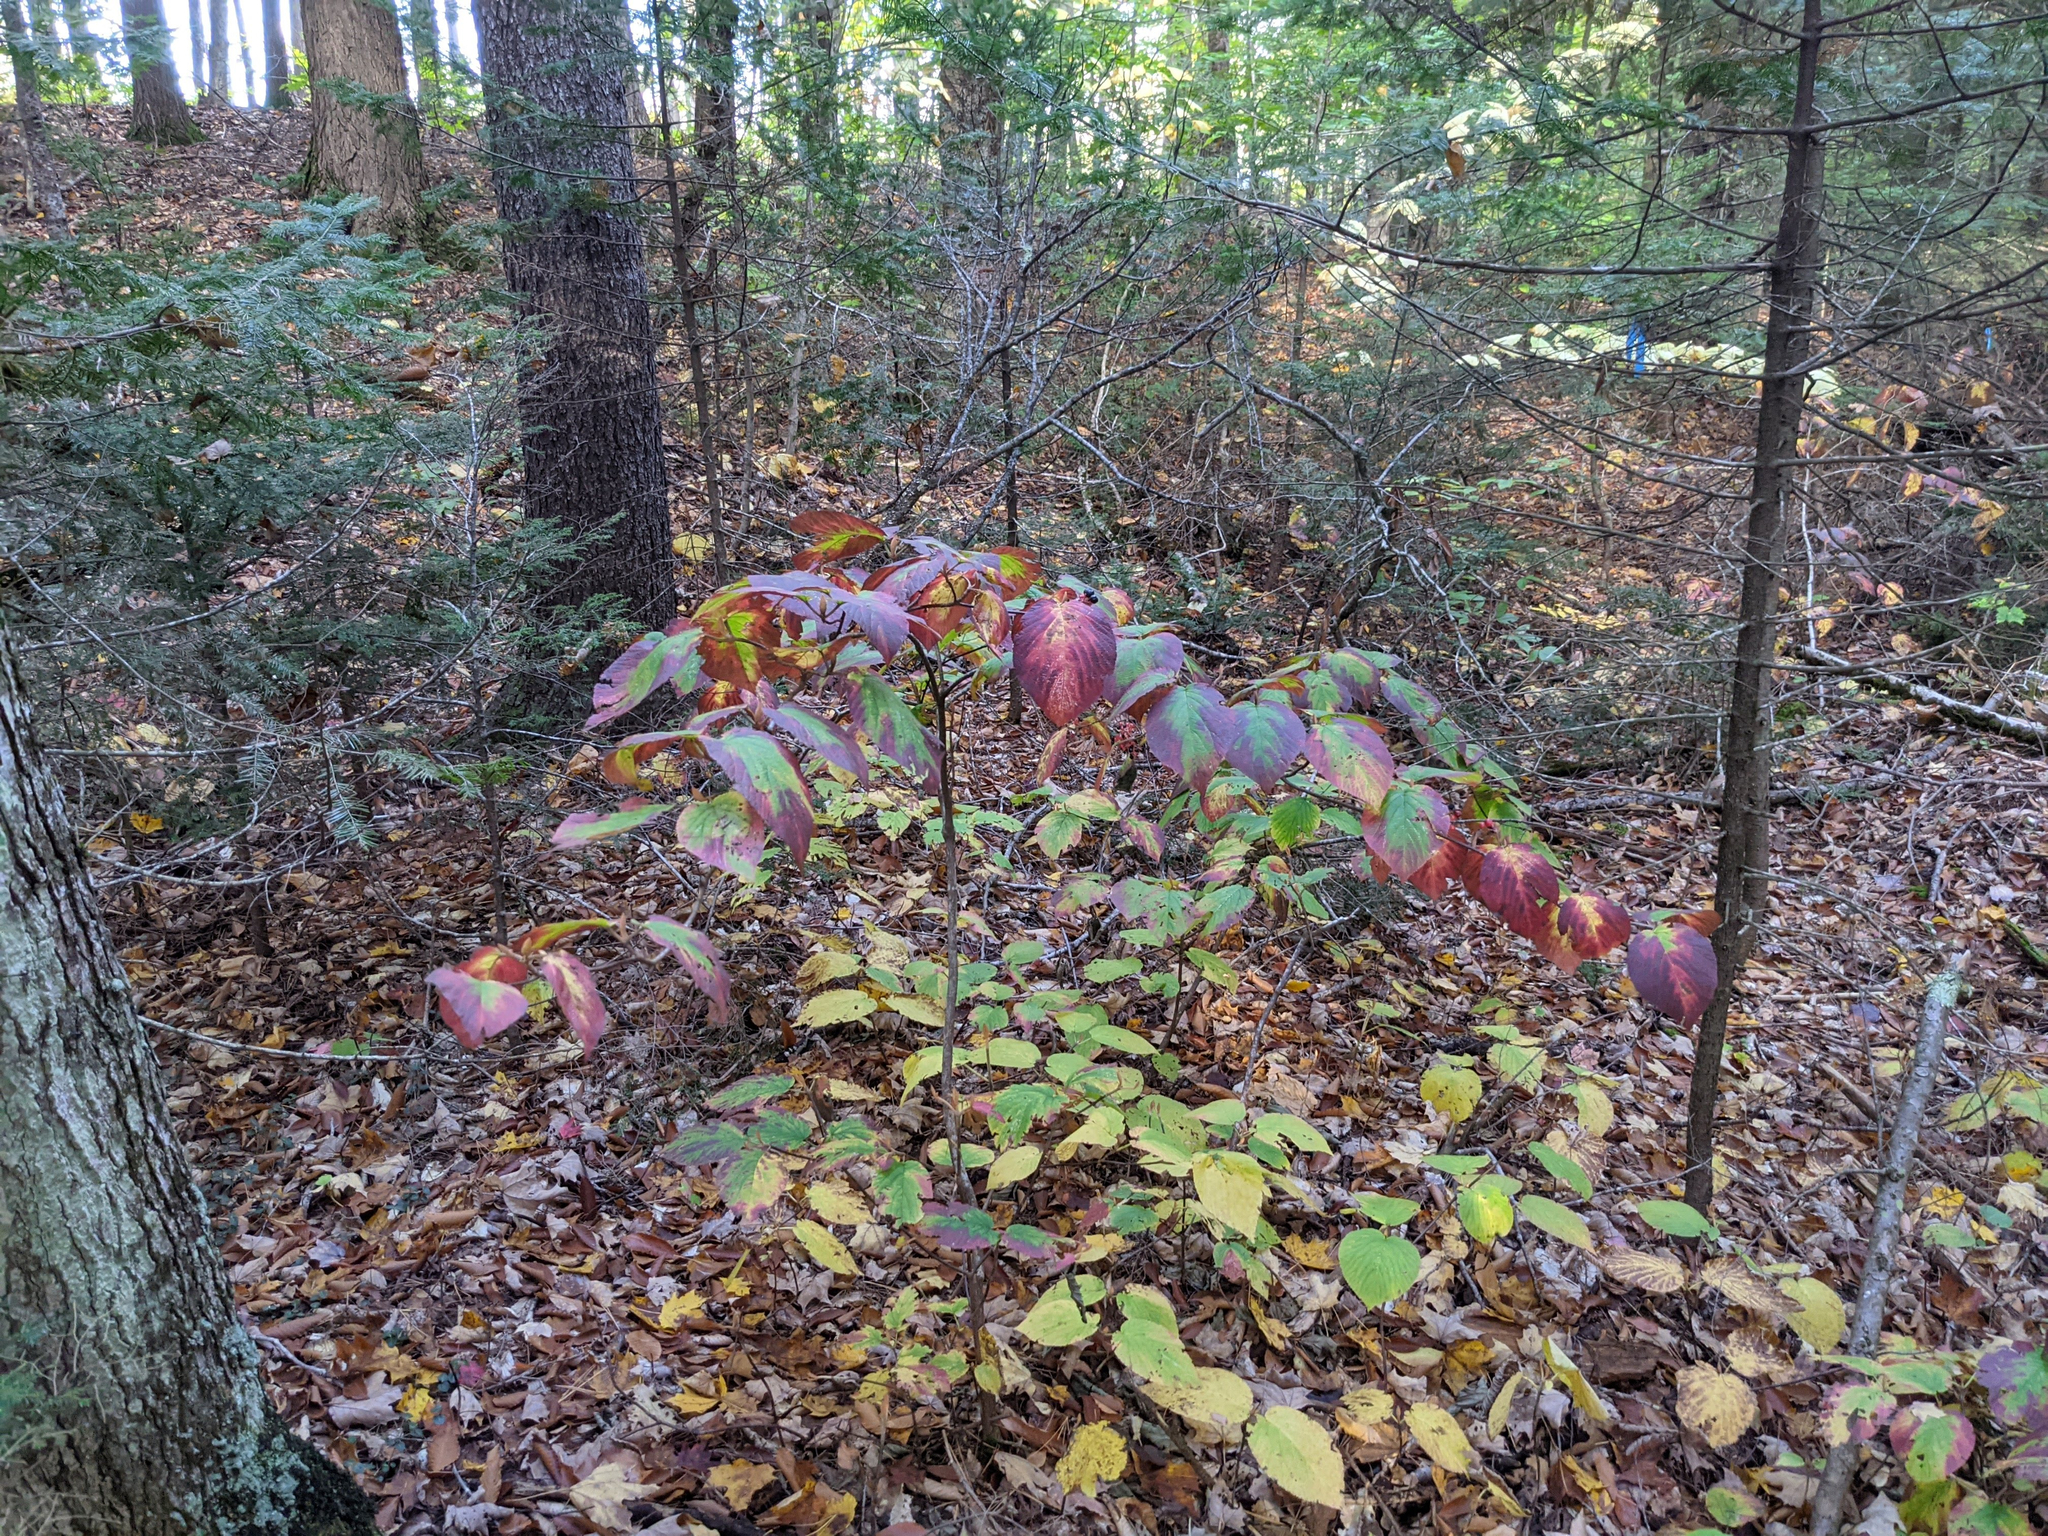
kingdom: Plantae
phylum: Tracheophyta
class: Magnoliopsida
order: Dipsacales
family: Viburnaceae
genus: Viburnum
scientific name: Viburnum lantanoides
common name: Hobblebush
